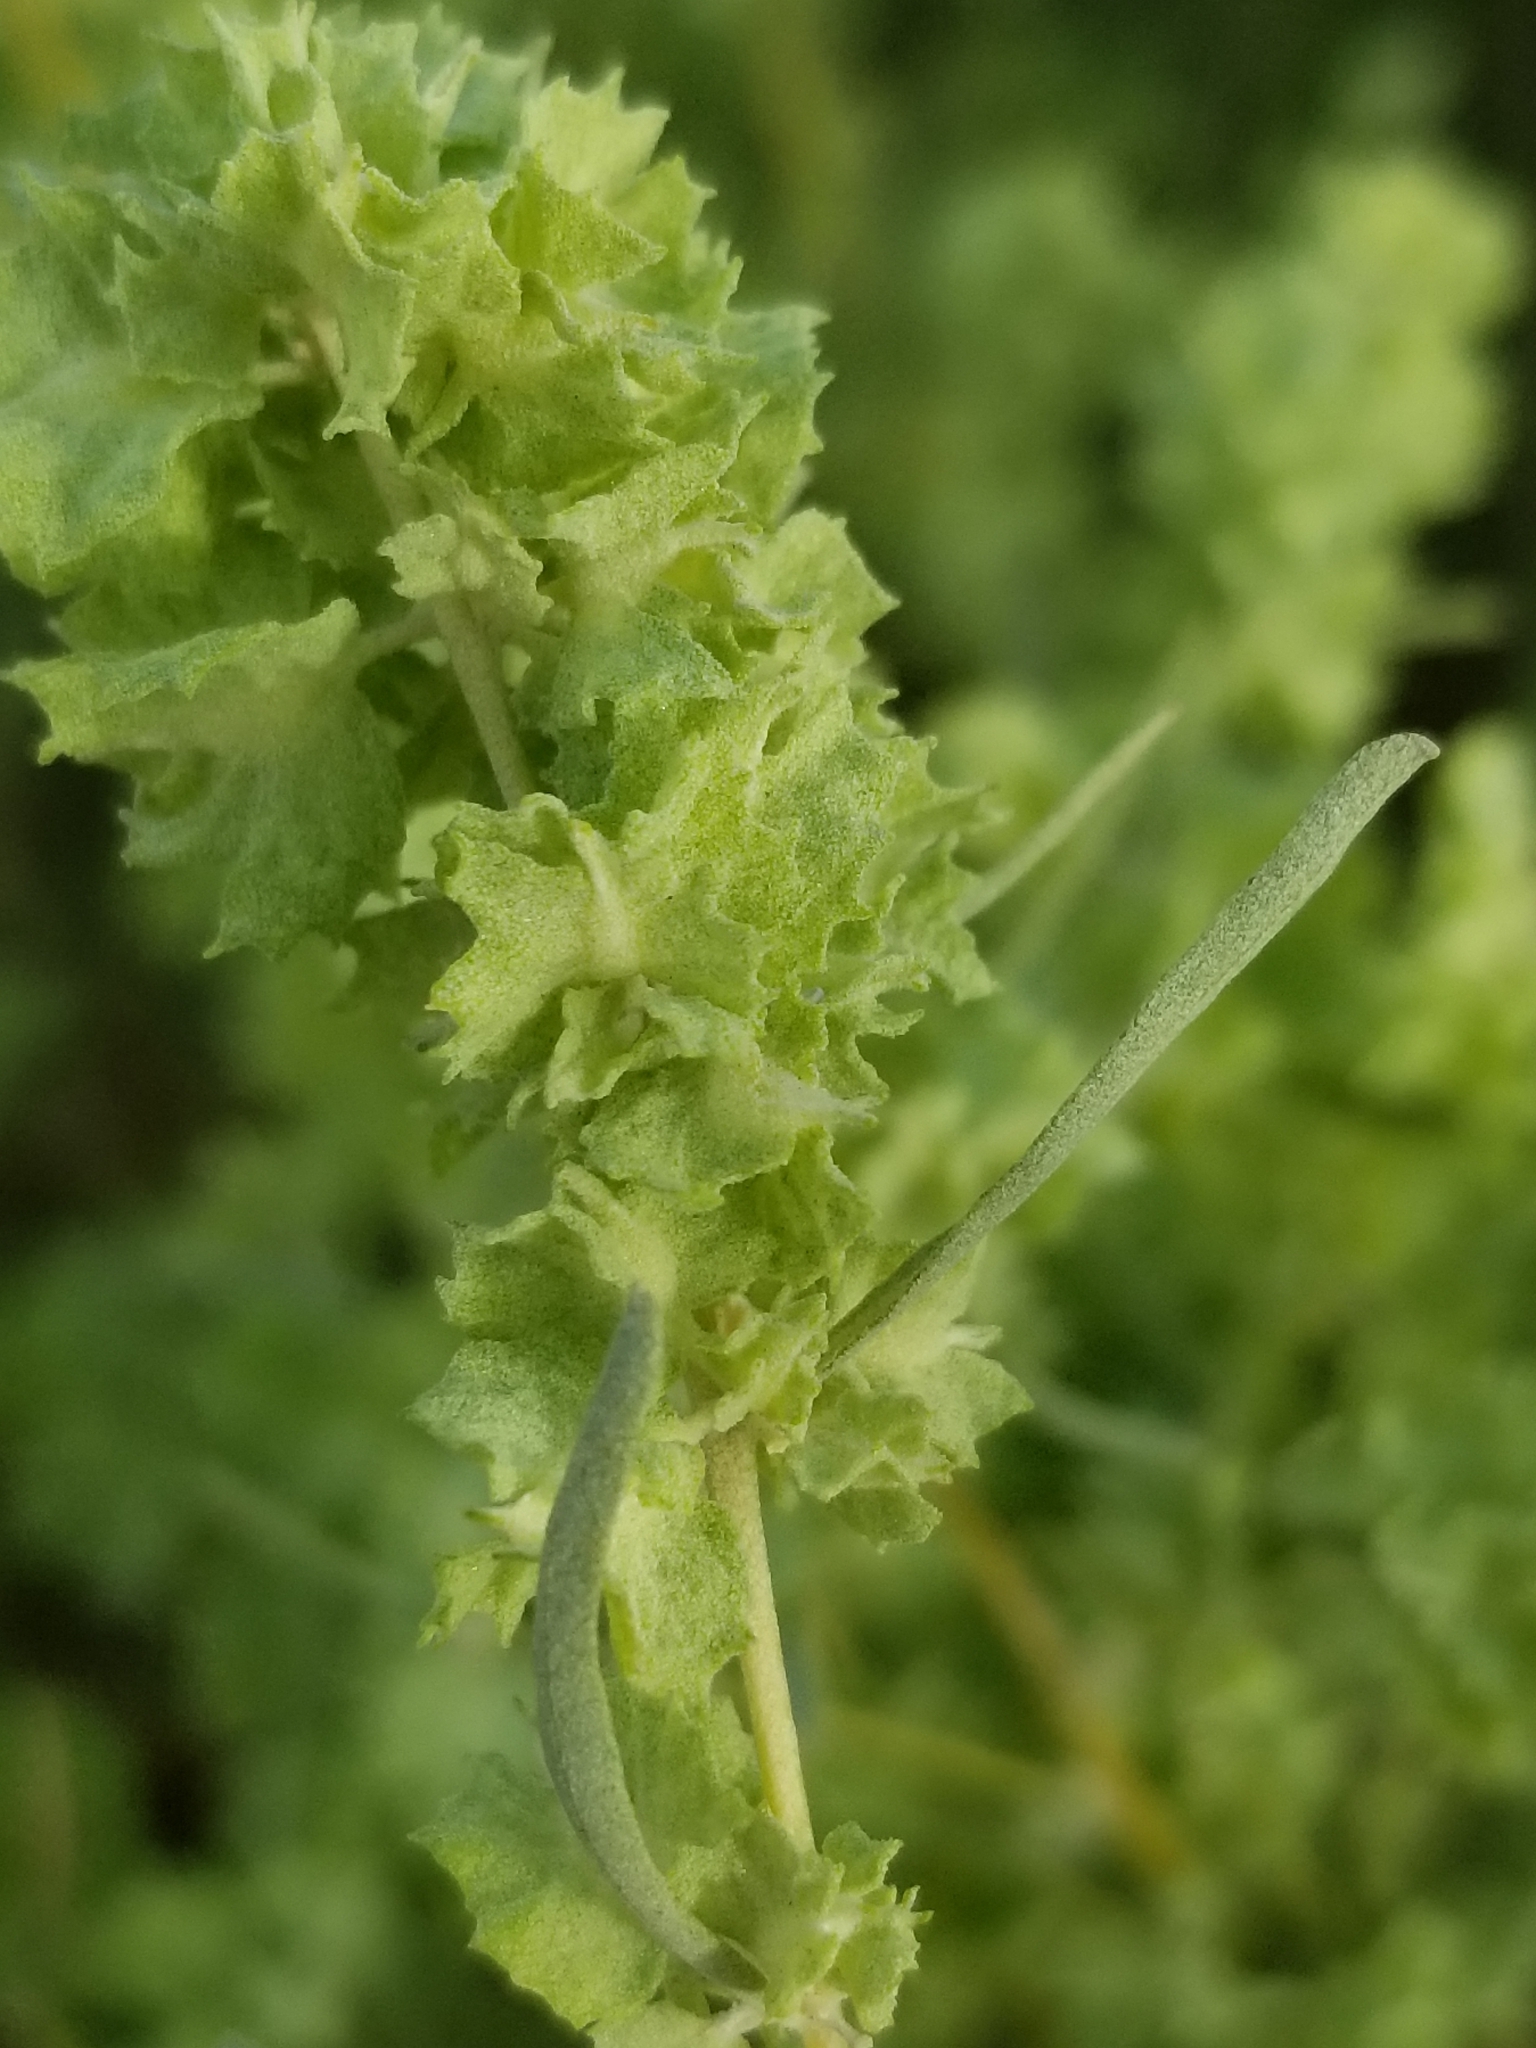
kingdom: Plantae
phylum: Tracheophyta
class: Magnoliopsida
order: Caryophyllales
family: Amaranthaceae
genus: Atriplex
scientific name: Atriplex canescens
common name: Four-wing saltbush
